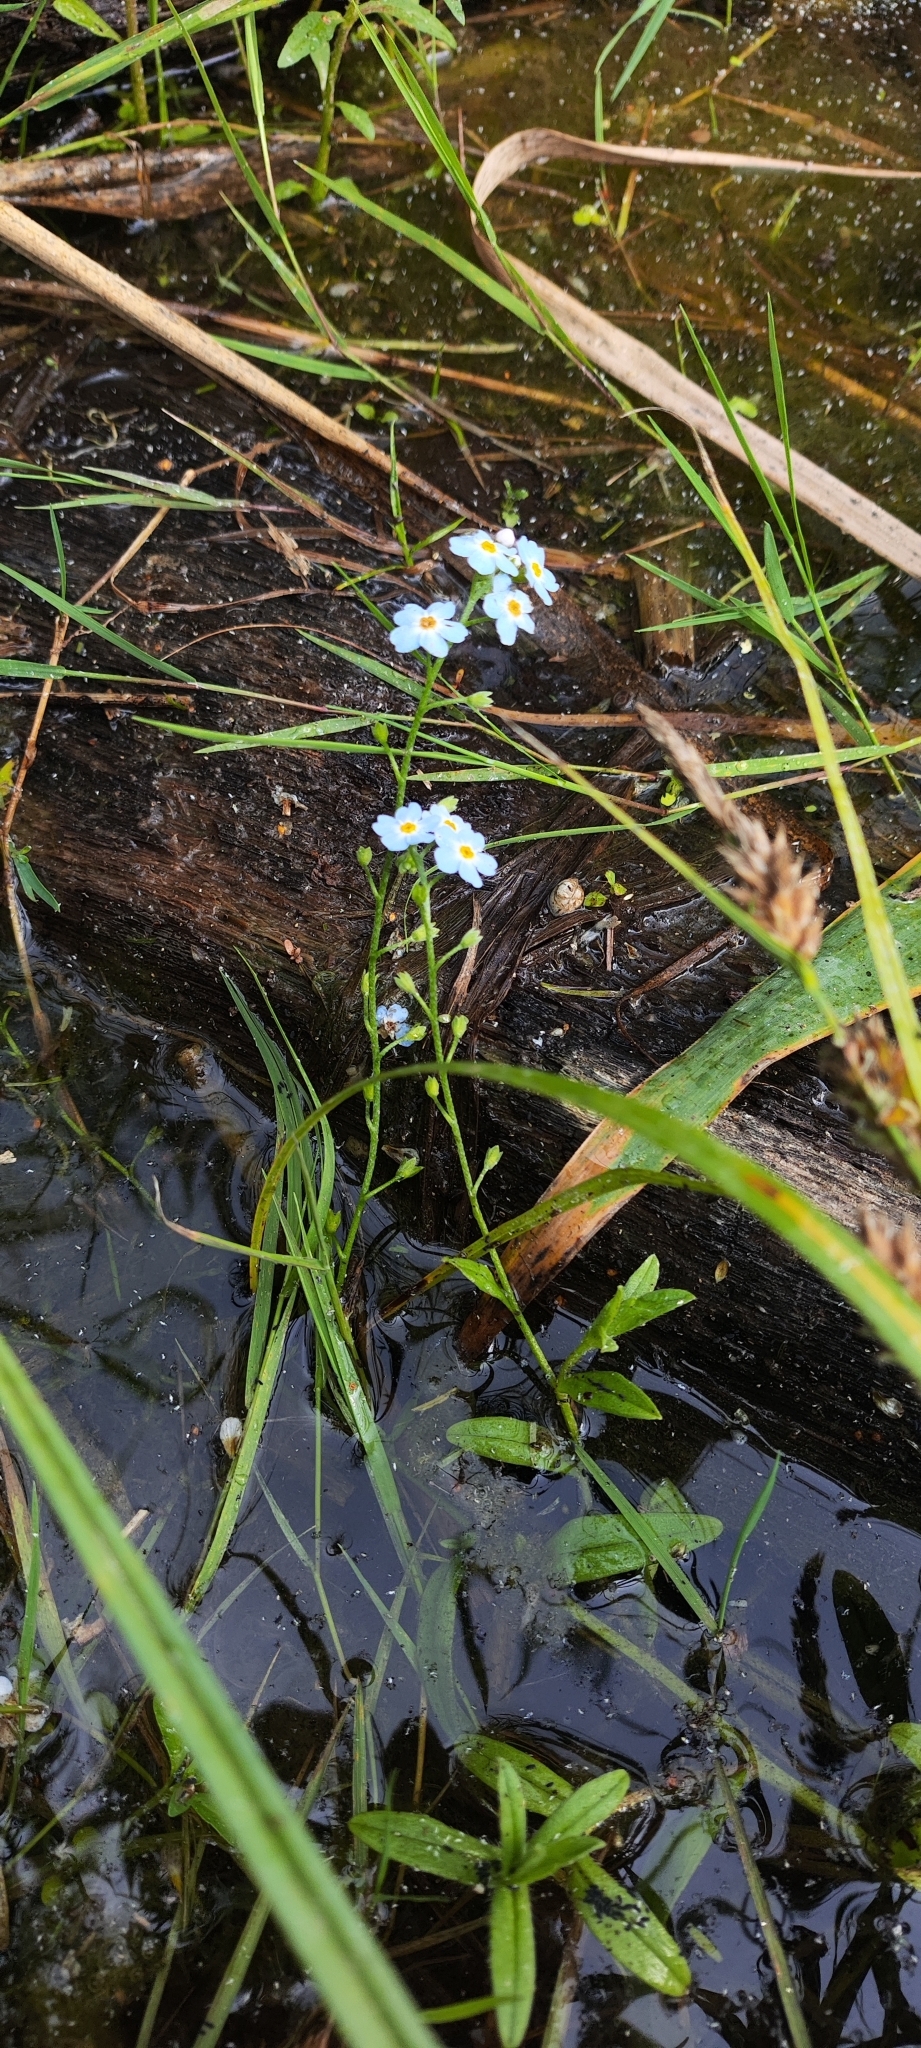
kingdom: Plantae
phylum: Tracheophyta
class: Magnoliopsida
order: Boraginales
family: Boraginaceae
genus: Myosotis
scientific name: Myosotis scorpioides
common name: Water forget-me-not
